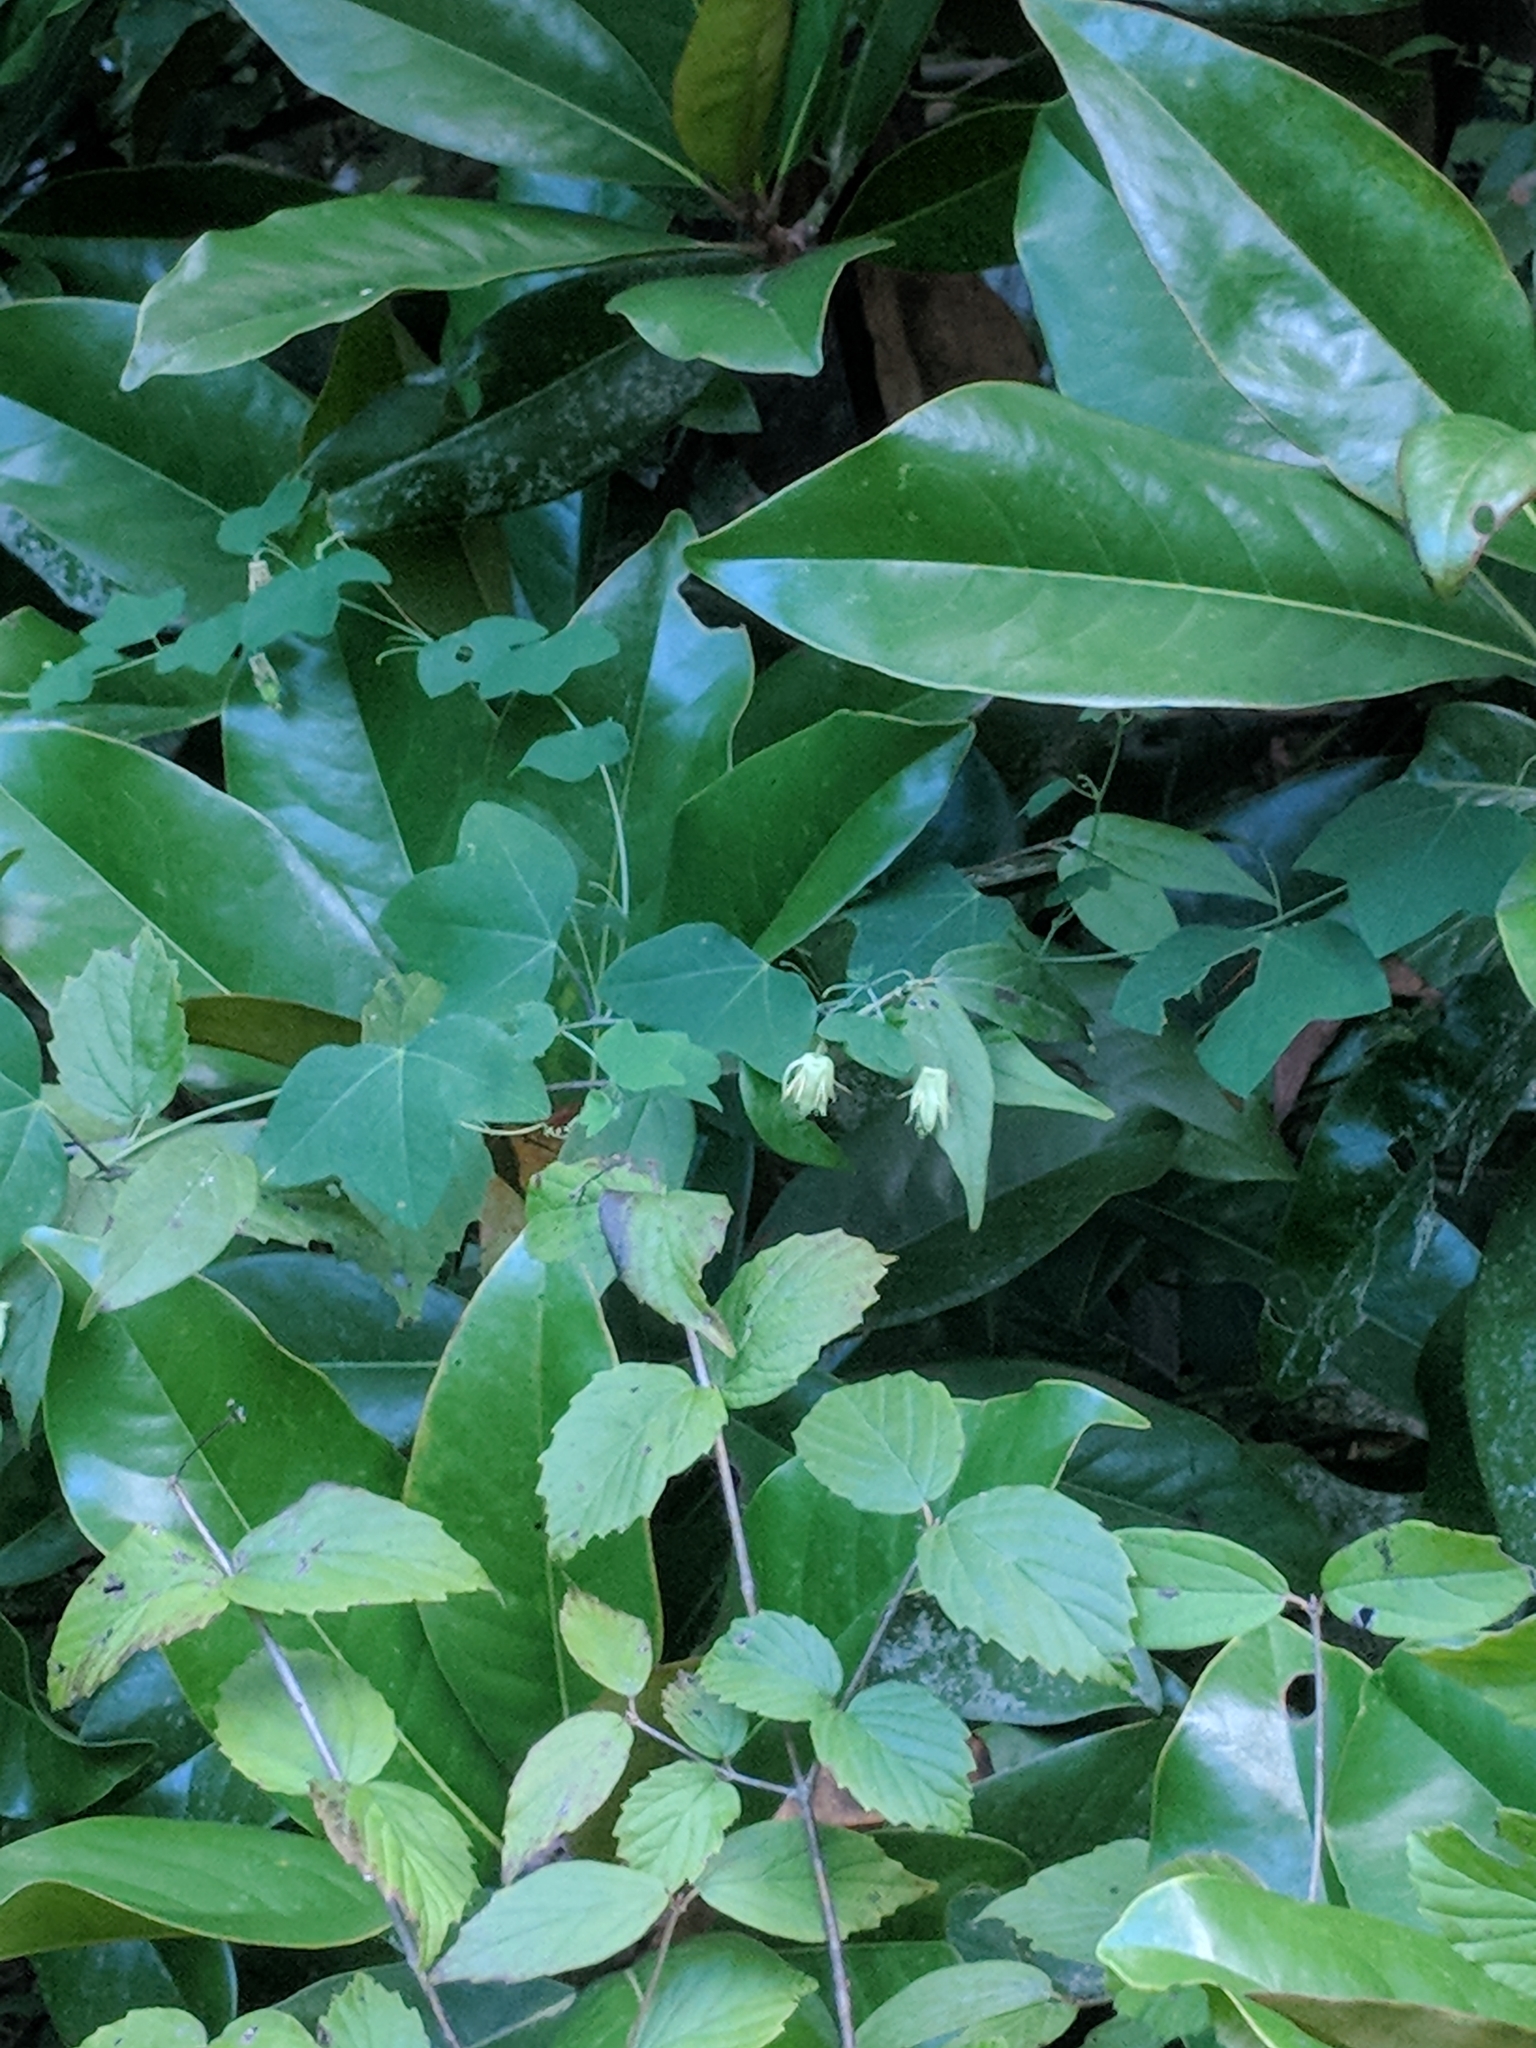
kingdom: Plantae
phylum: Tracheophyta
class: Magnoliopsida
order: Malpighiales
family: Passifloraceae
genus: Passiflora
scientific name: Passiflora lutea
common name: Yellow passionflower
